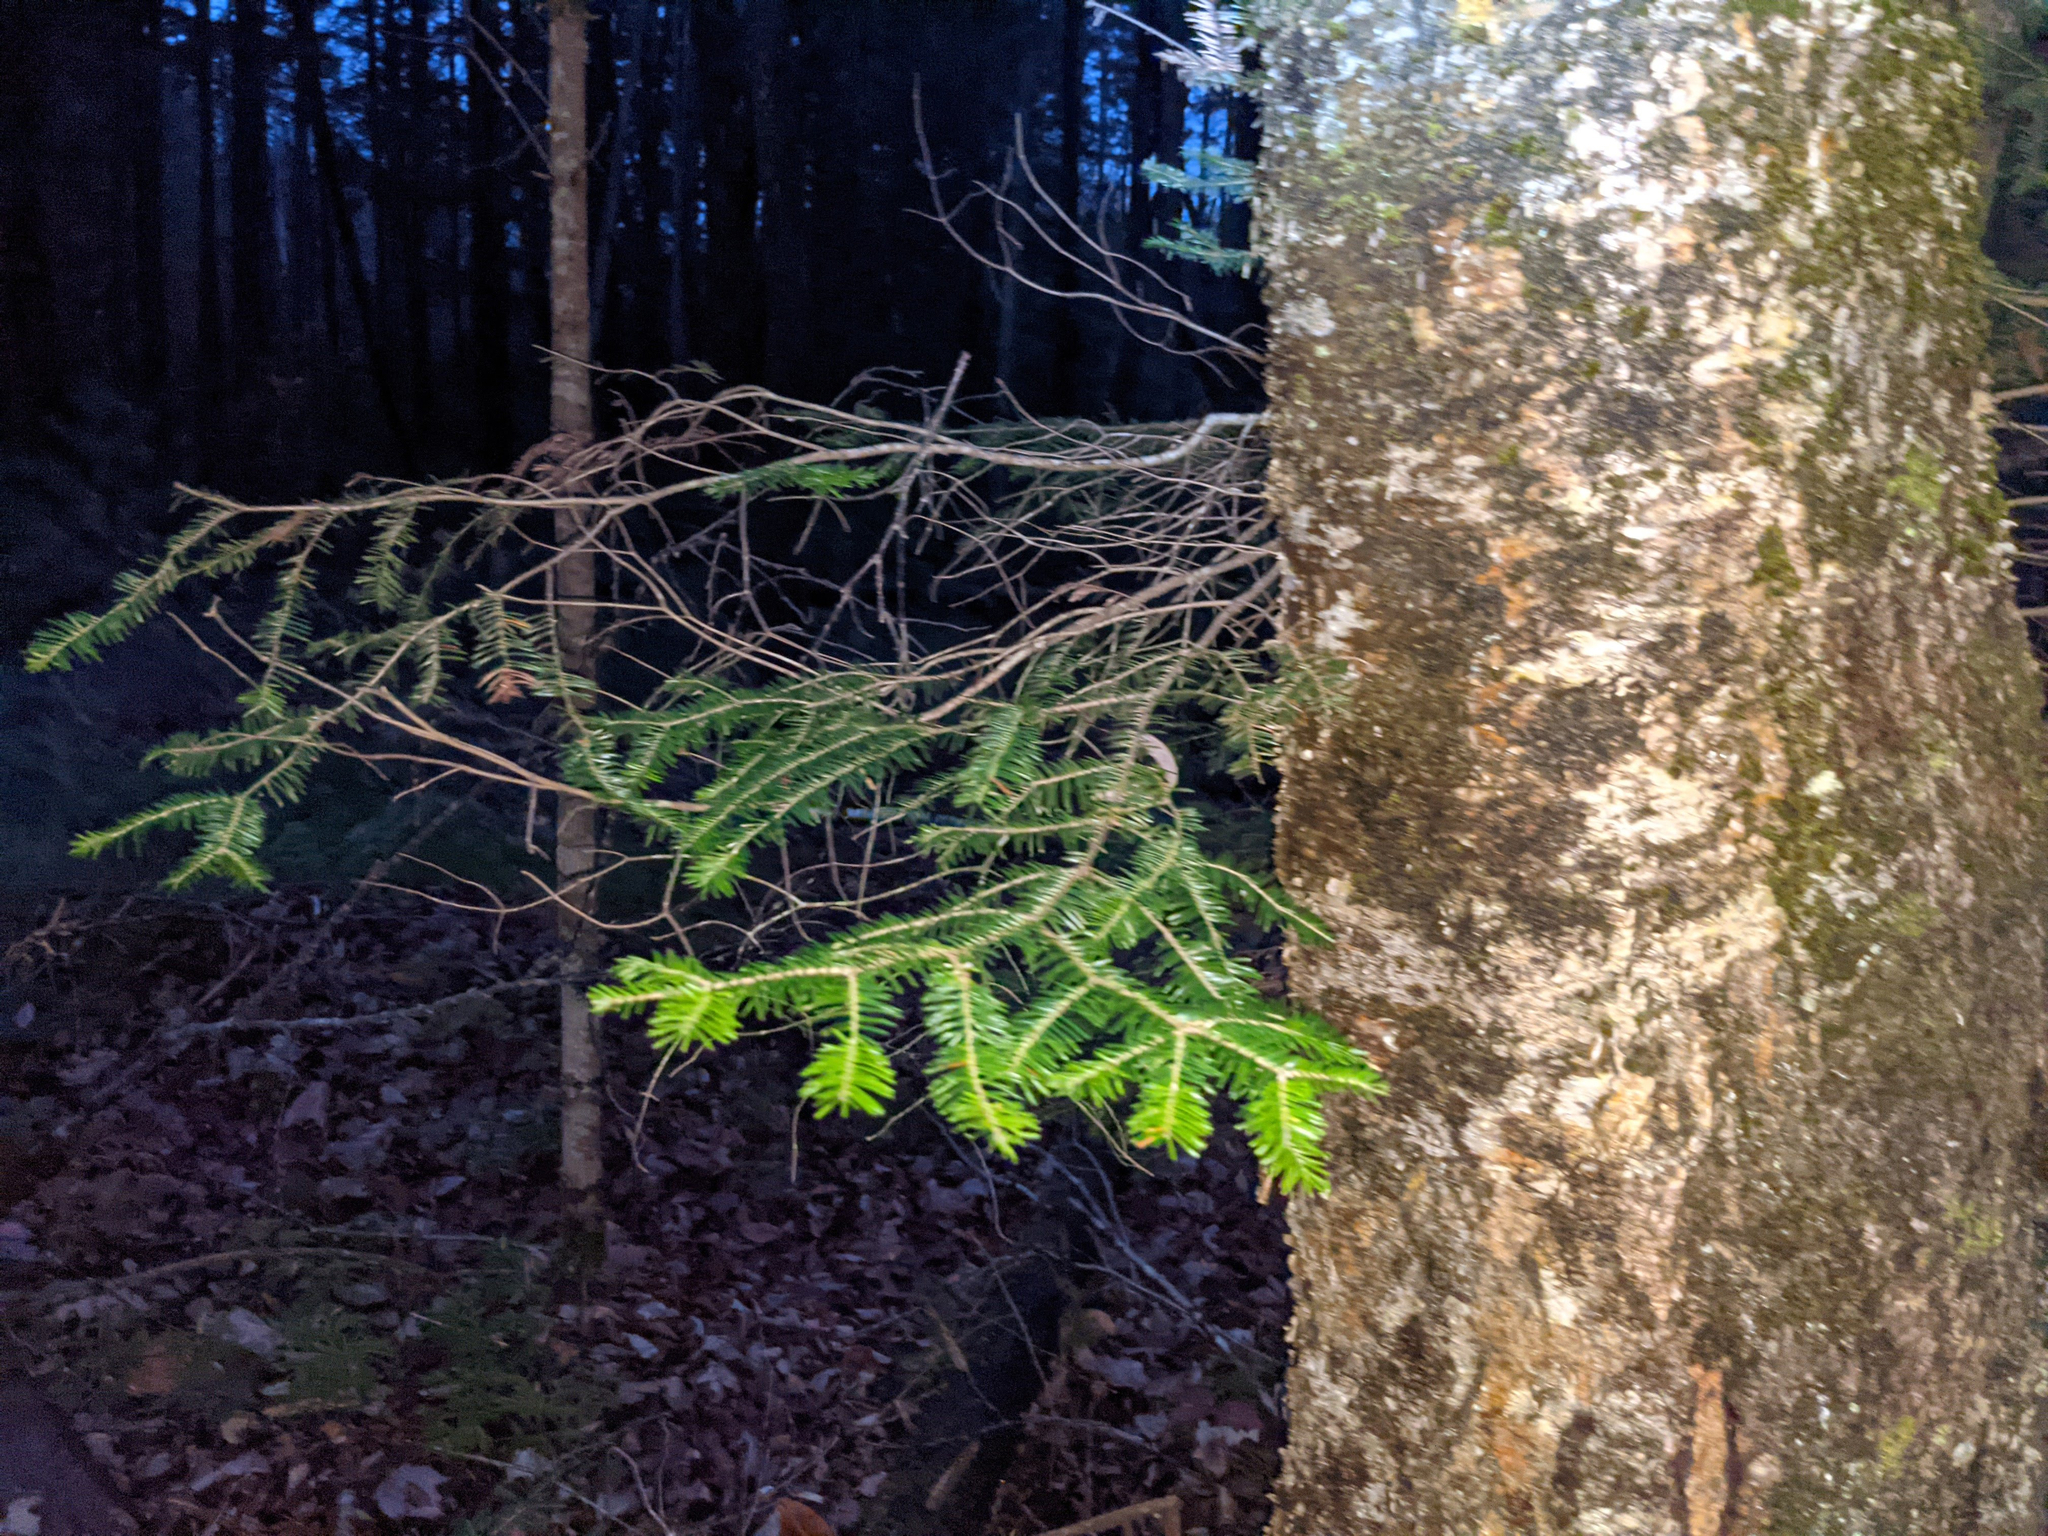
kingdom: Plantae
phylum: Tracheophyta
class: Pinopsida
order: Pinales
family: Pinaceae
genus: Abies
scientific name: Abies balsamea
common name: Balsam fir
